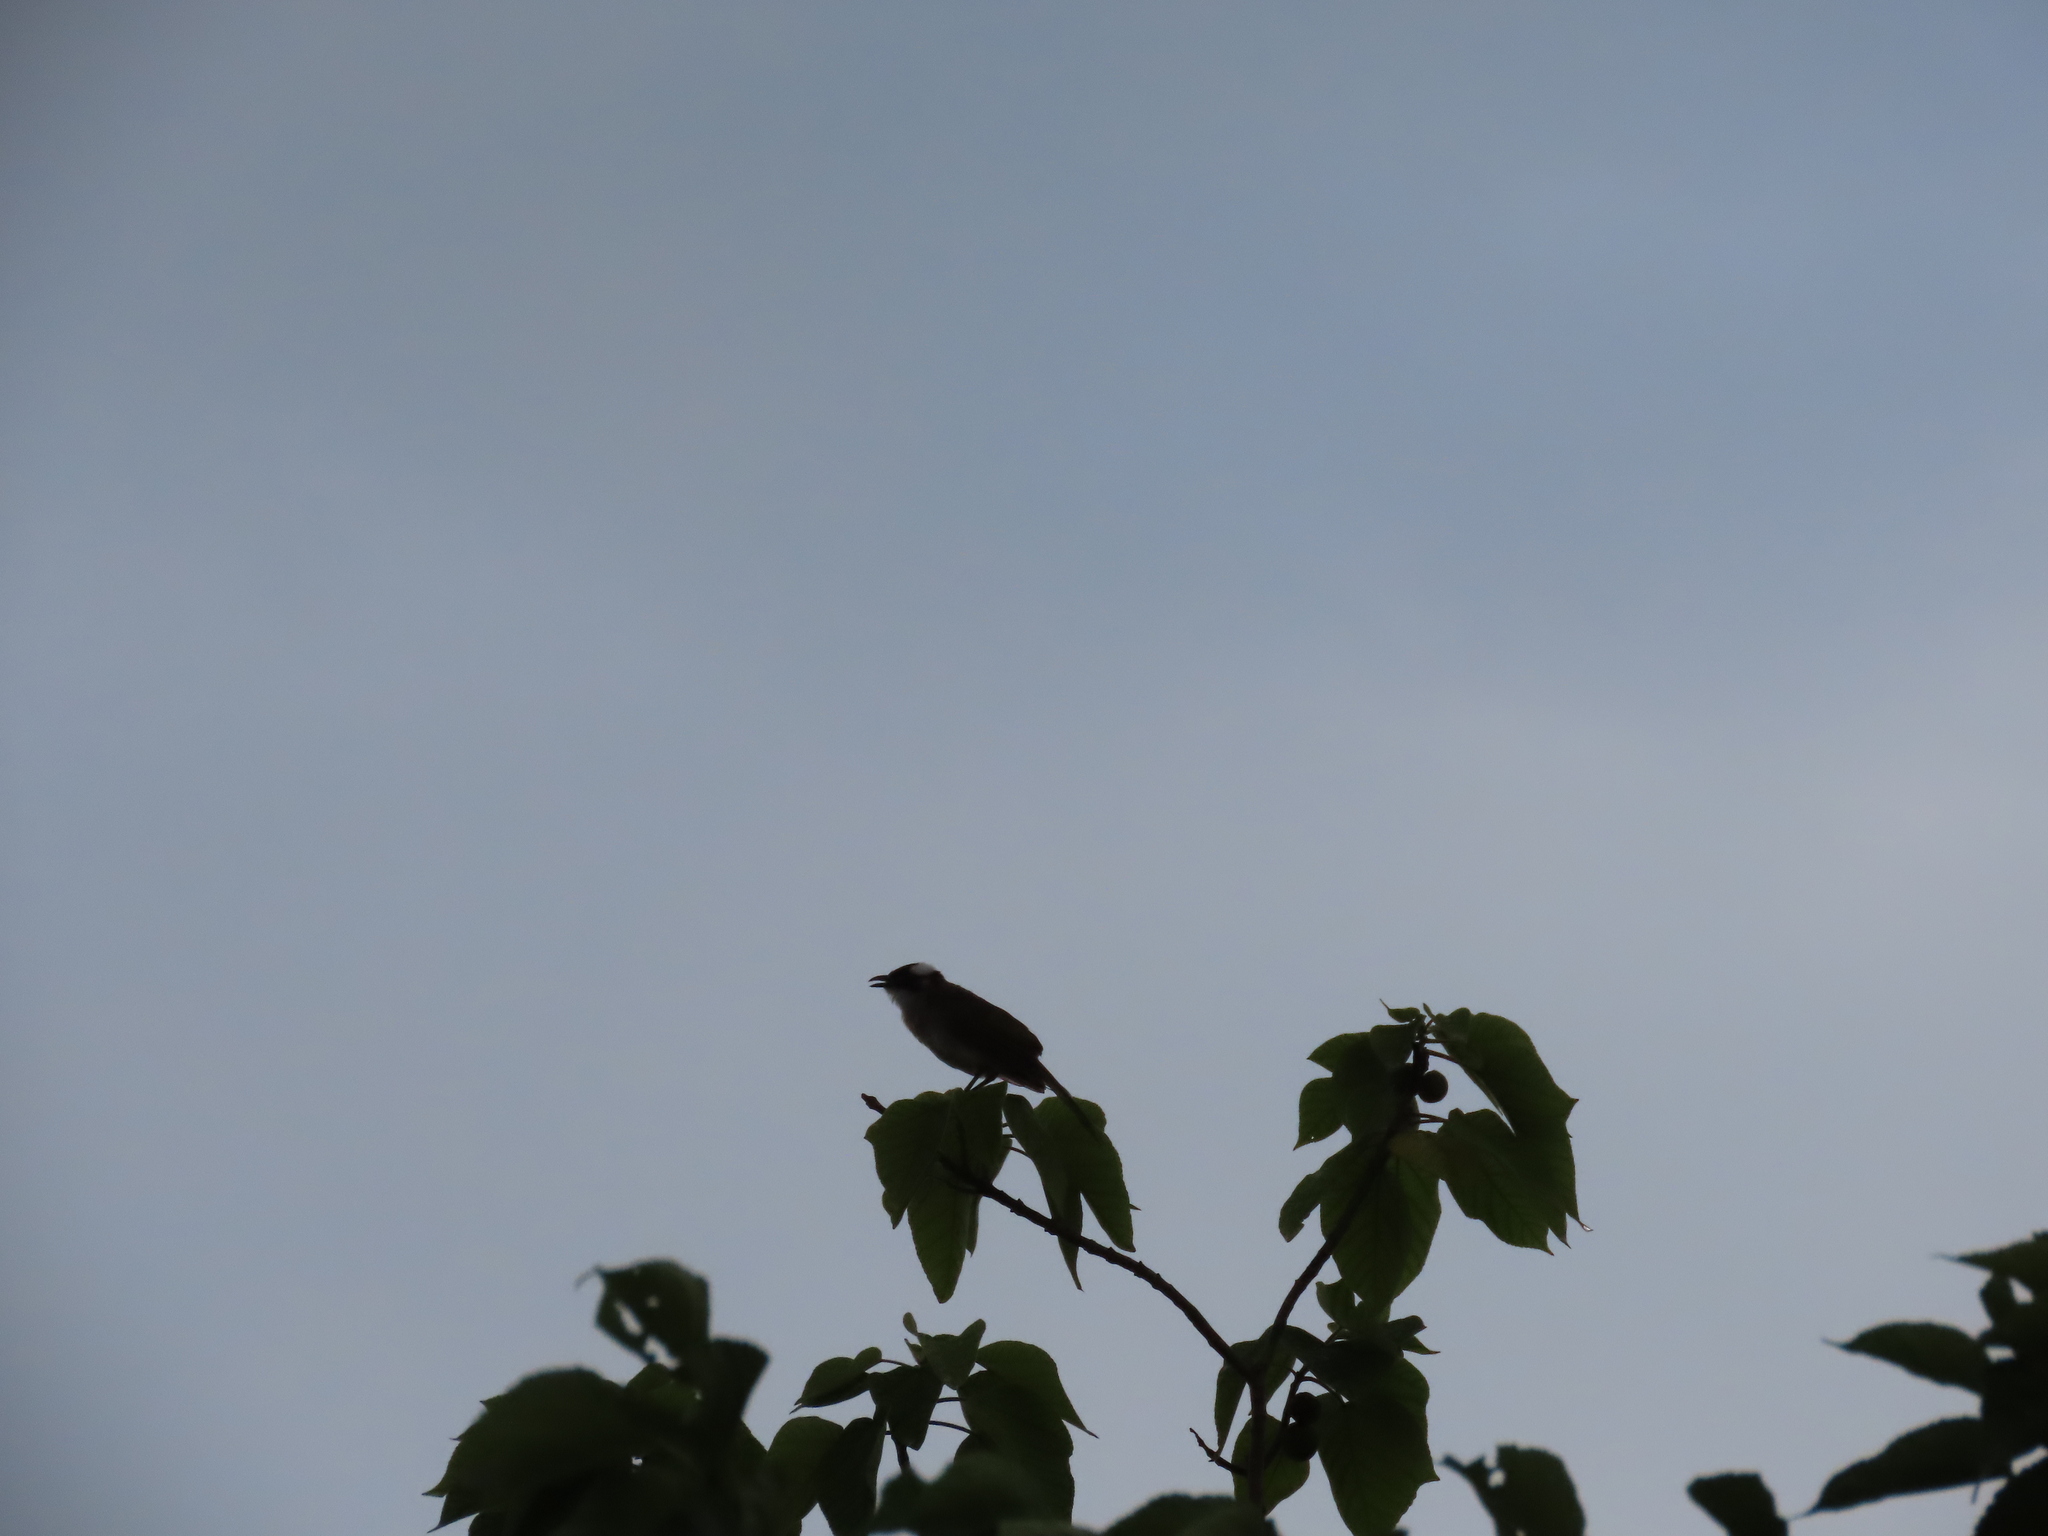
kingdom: Animalia
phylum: Chordata
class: Aves
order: Passeriformes
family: Pycnonotidae
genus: Pycnonotus
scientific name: Pycnonotus sinensis
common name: Light-vented bulbul
